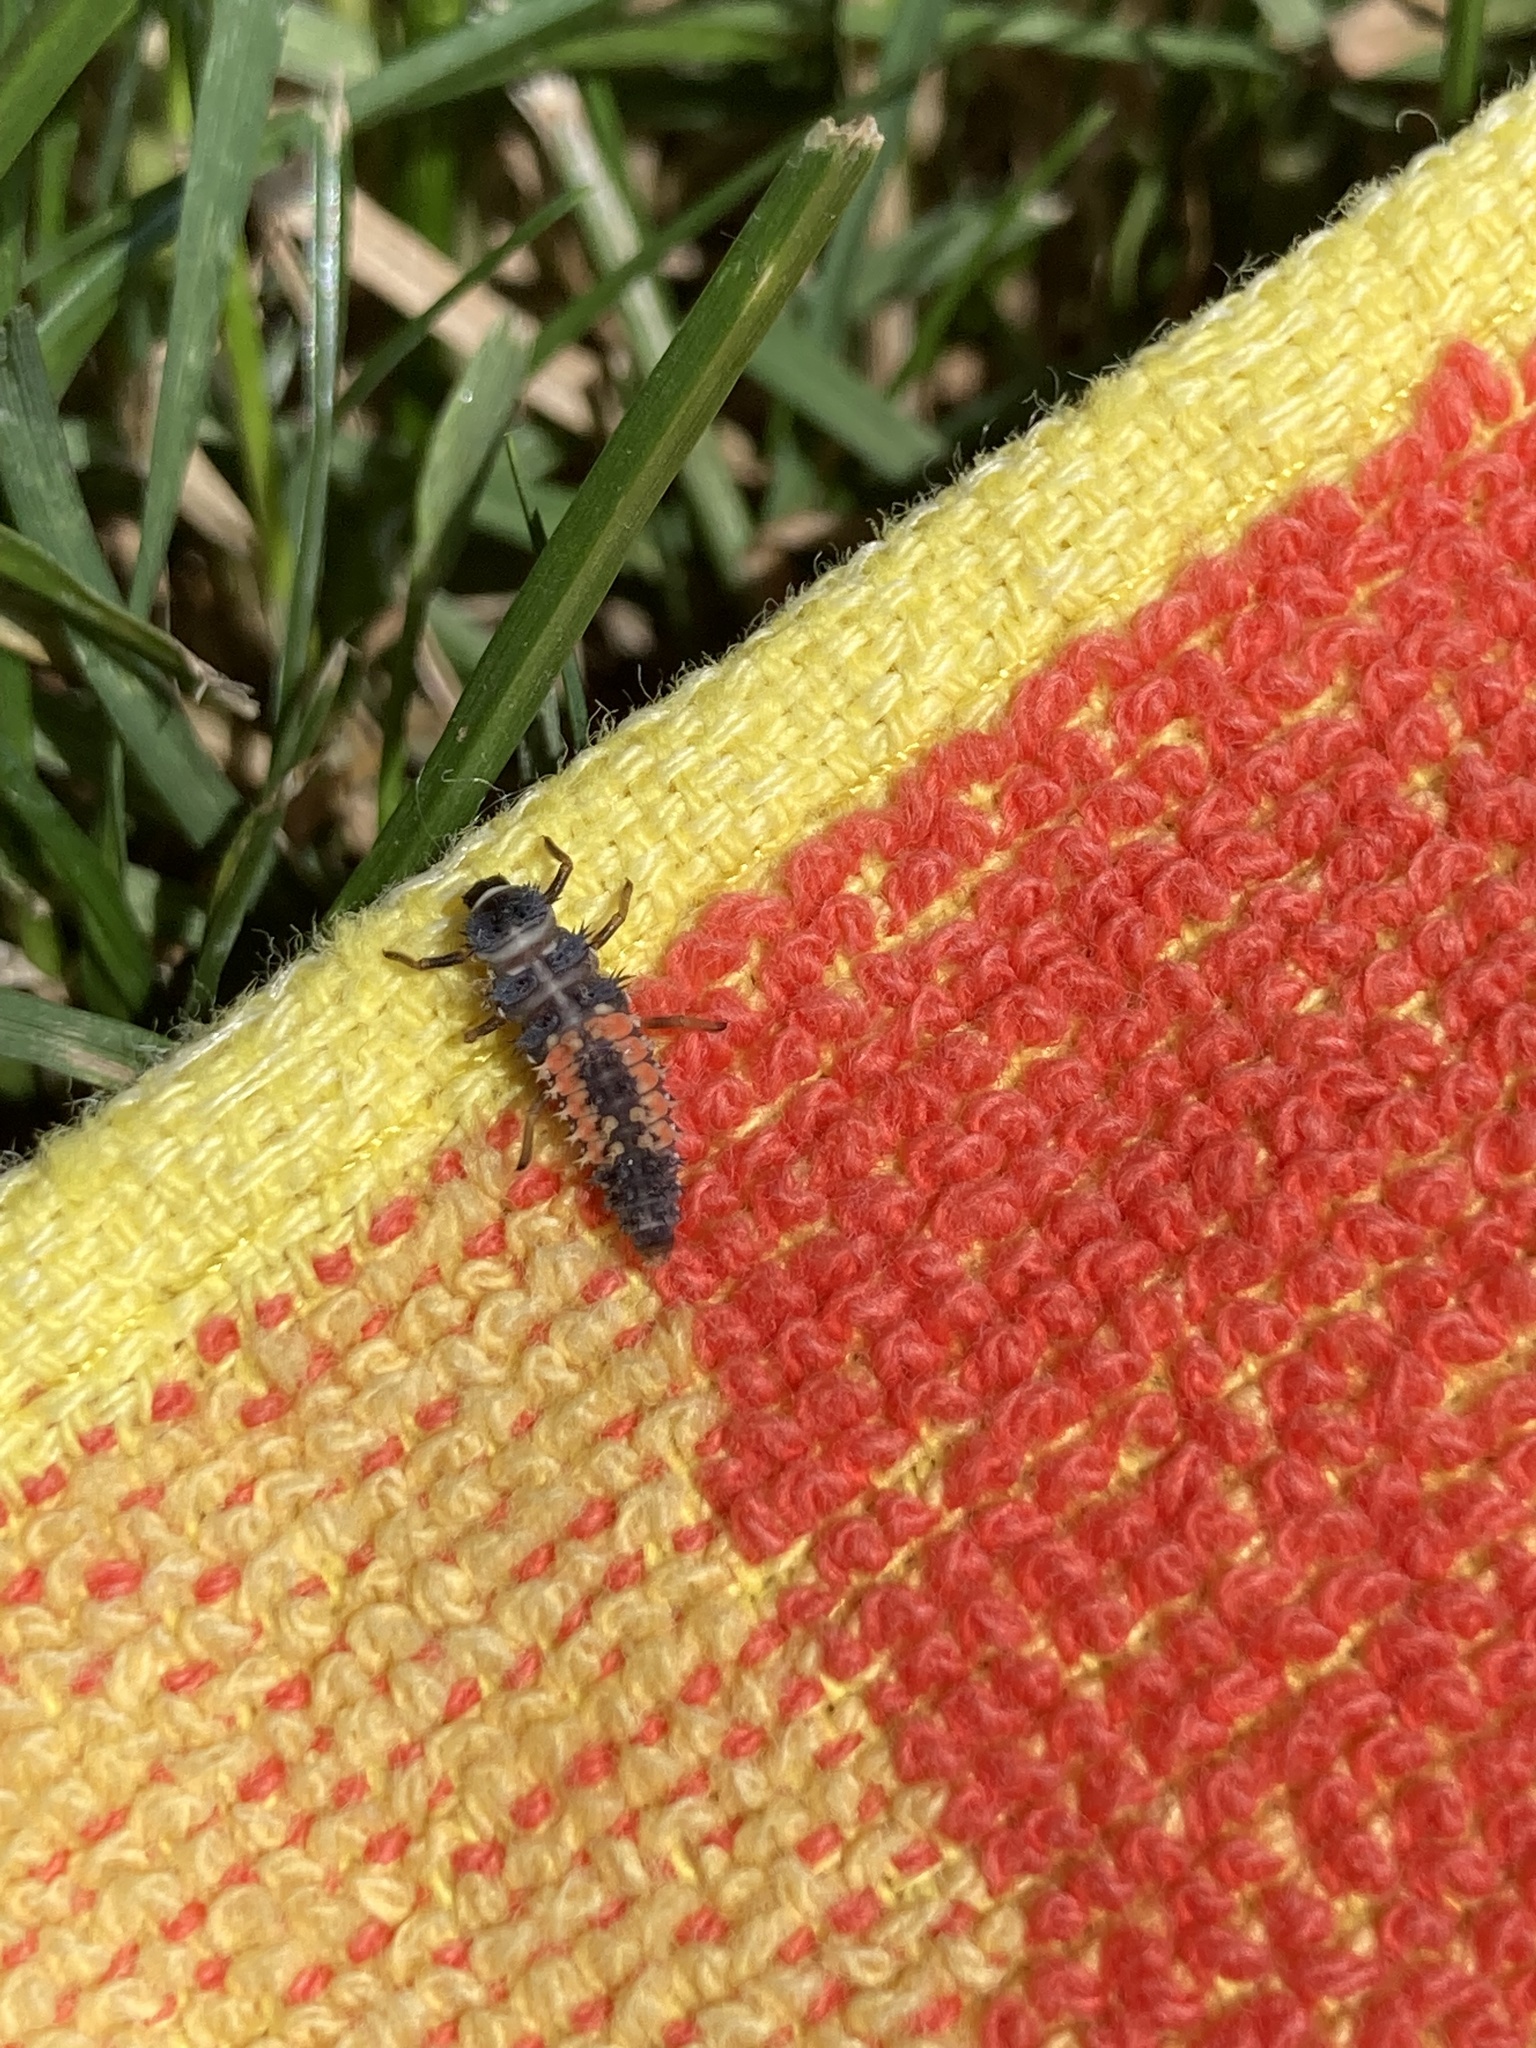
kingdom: Animalia
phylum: Arthropoda
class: Insecta
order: Coleoptera
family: Coccinellidae
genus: Harmonia
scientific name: Harmonia axyridis
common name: Harlequin ladybird
